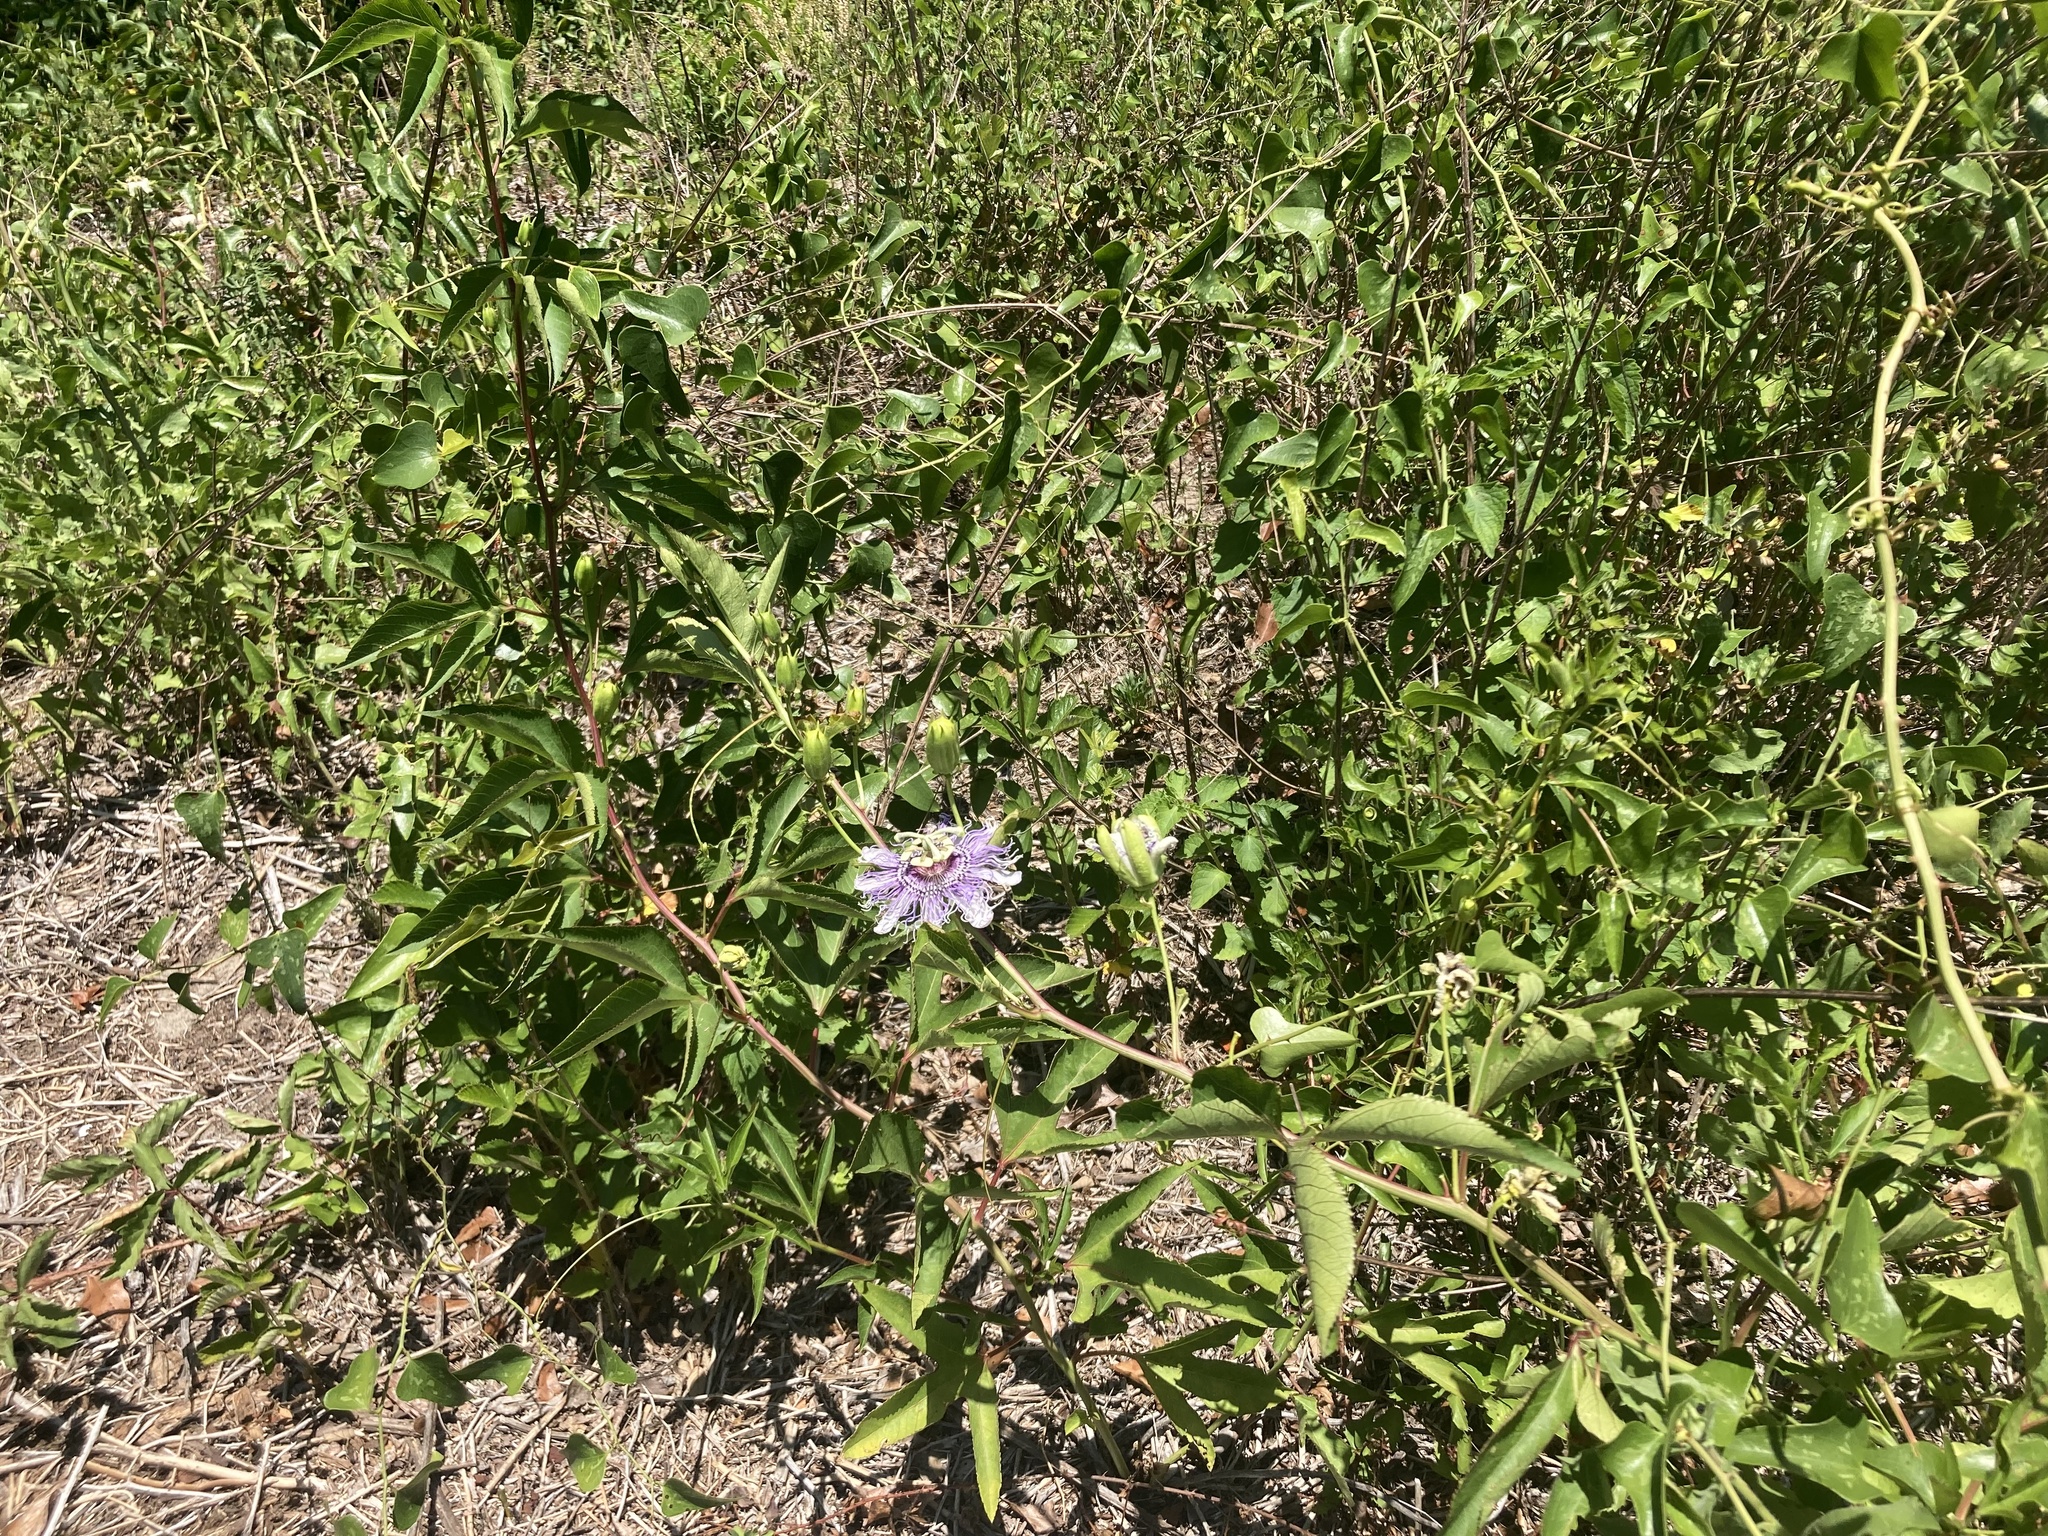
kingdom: Plantae
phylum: Tracheophyta
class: Magnoliopsida
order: Malpighiales
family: Passifloraceae
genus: Passiflora
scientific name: Passiflora incarnata
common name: Apricot-vine
